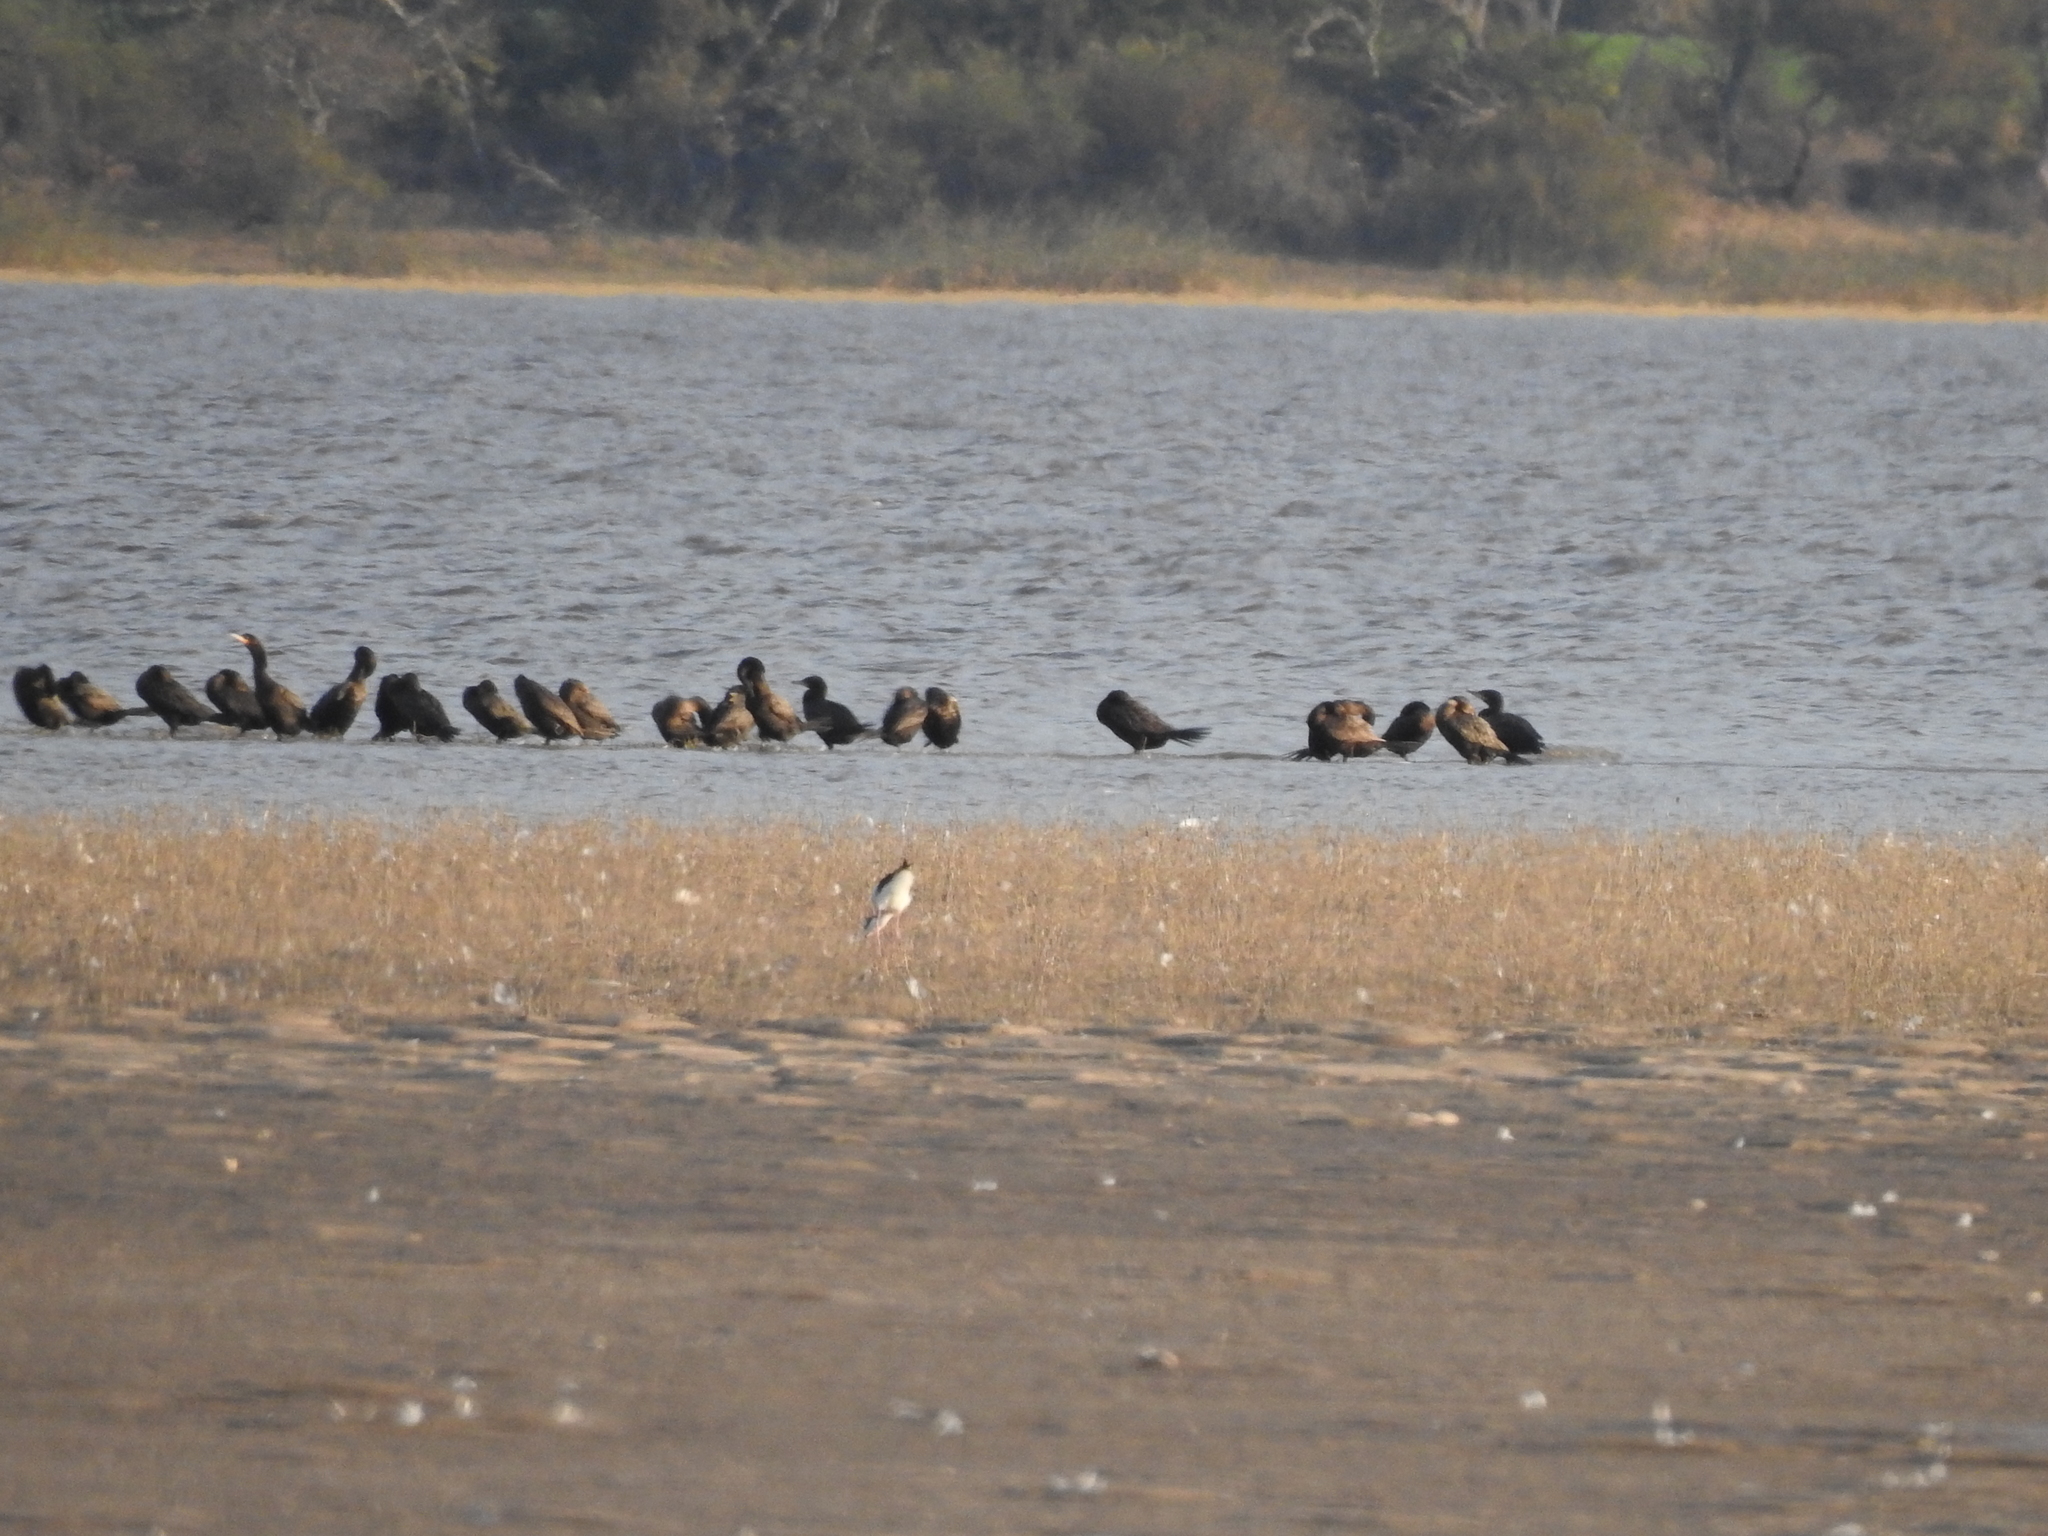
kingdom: Animalia
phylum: Chordata
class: Aves
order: Suliformes
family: Phalacrocoracidae
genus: Phalacrocorax
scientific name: Phalacrocorax brasilianus
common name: Neotropic cormorant
